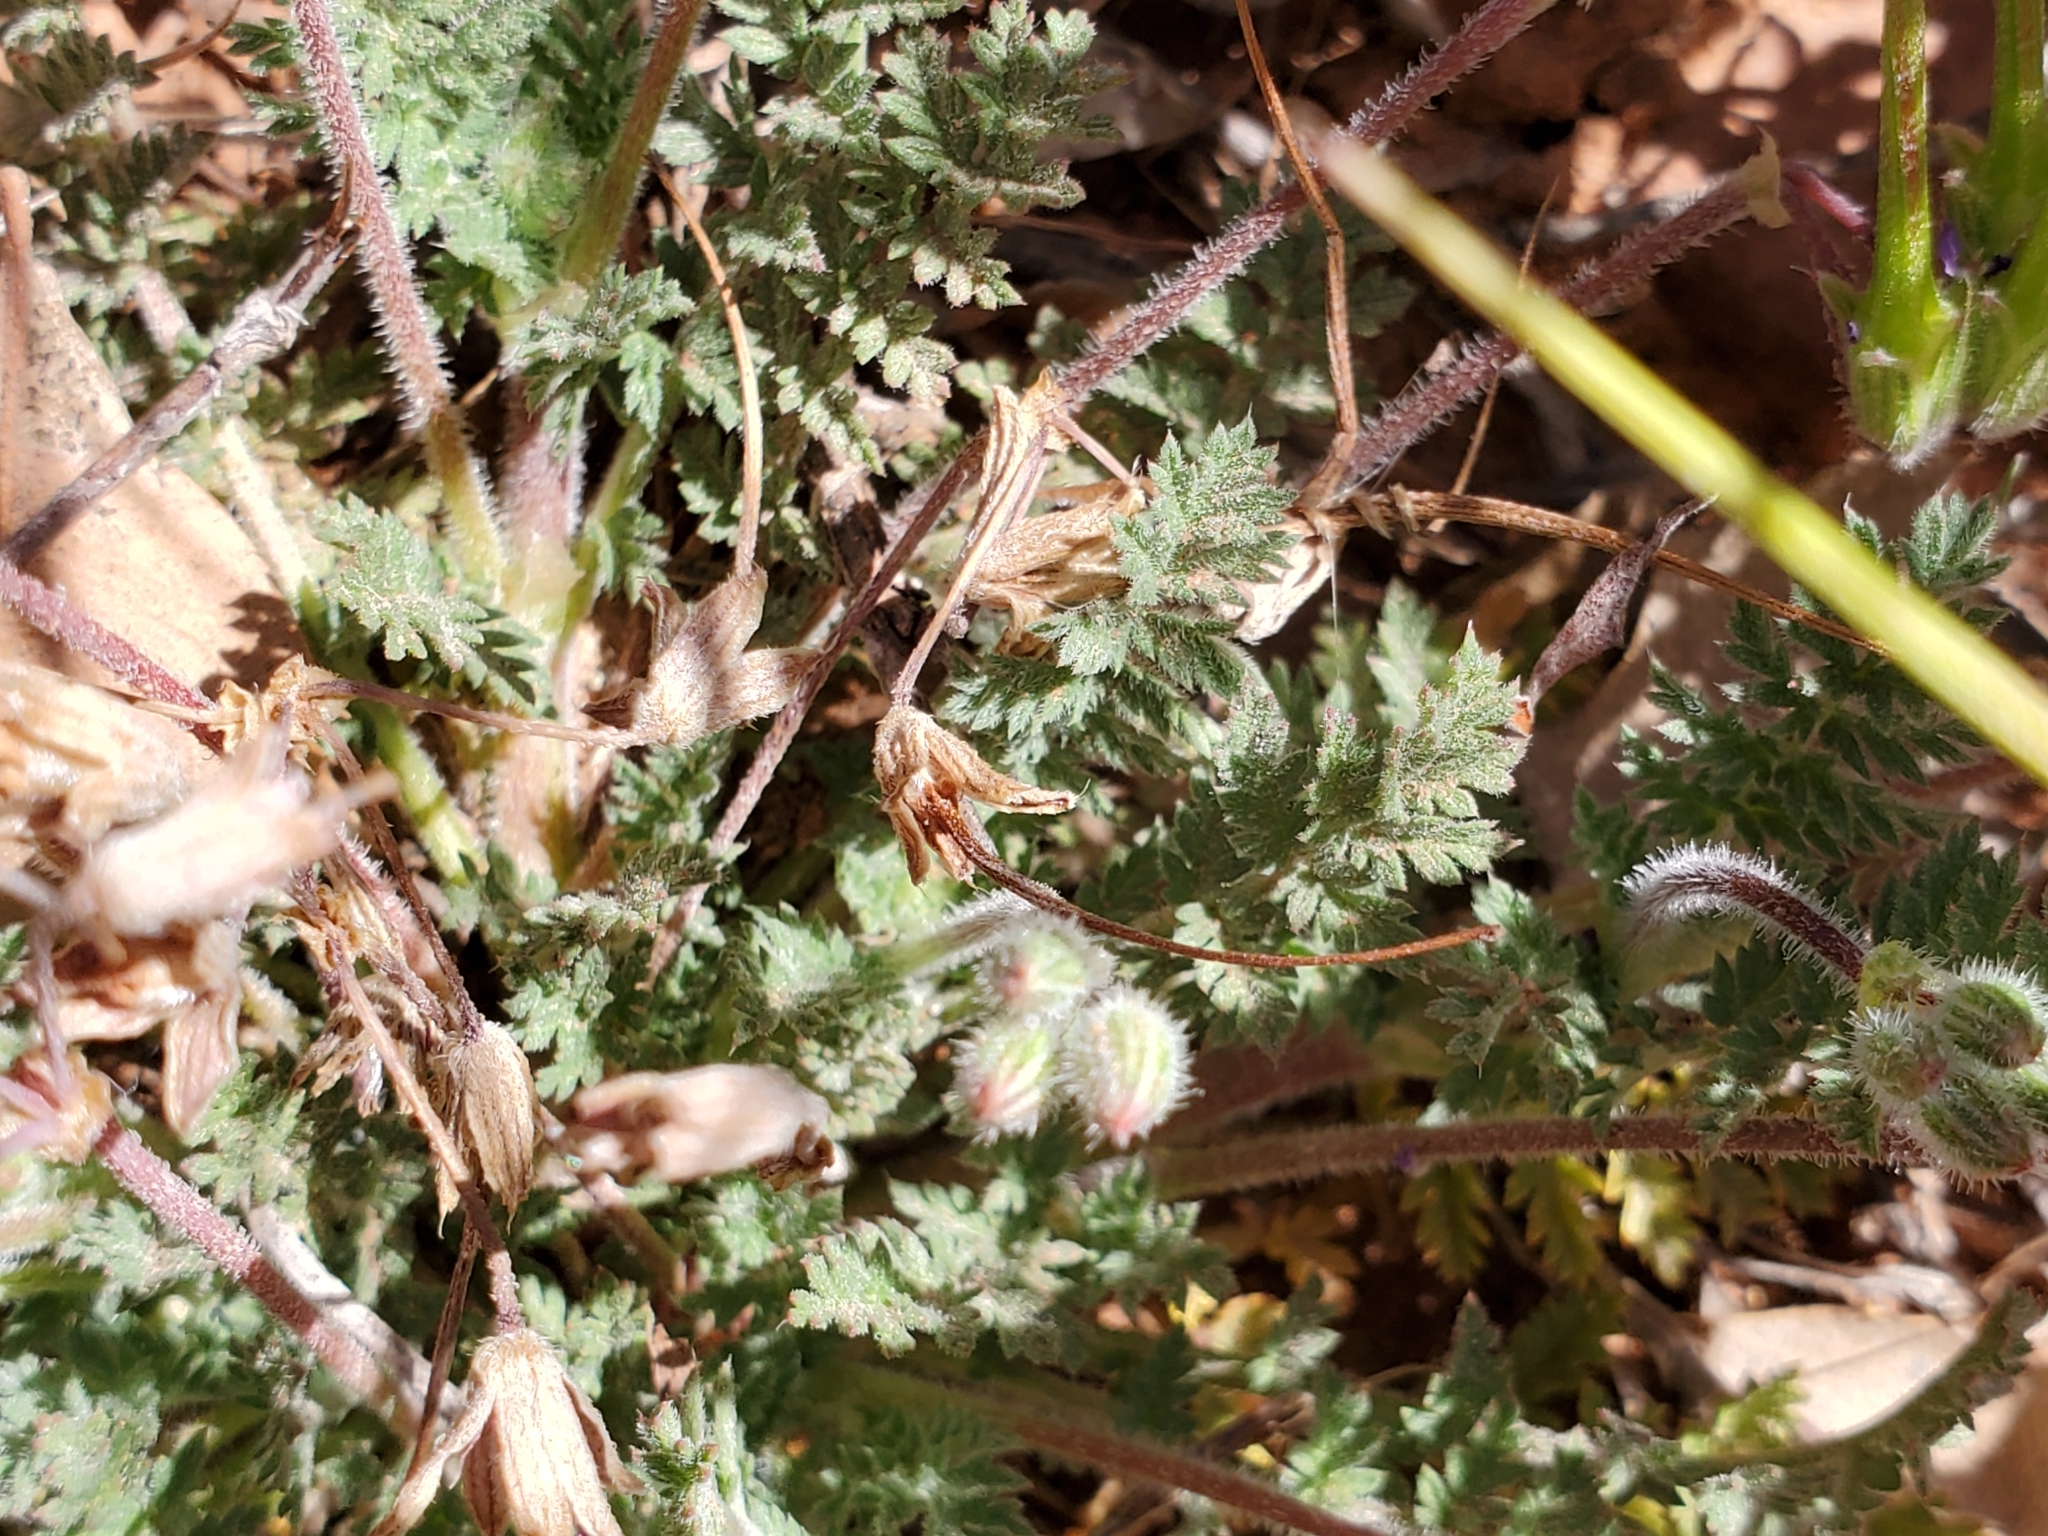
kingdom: Plantae
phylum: Tracheophyta
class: Magnoliopsida
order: Geraniales
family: Geraniaceae
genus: Erodium
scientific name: Erodium cicutarium
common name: Common stork's-bill
